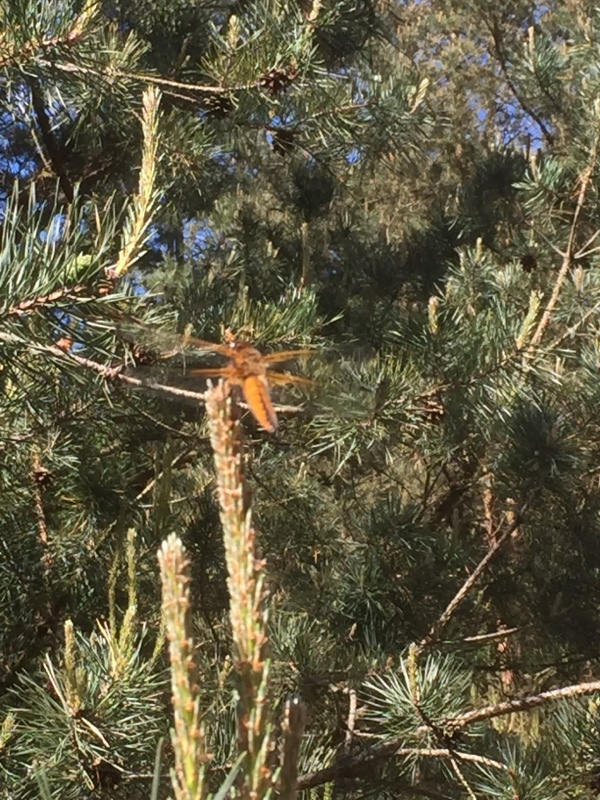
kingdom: Animalia
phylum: Arthropoda
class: Insecta
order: Odonata
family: Libellulidae
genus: Libellula
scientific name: Libellula fulva
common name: Blue chaser
